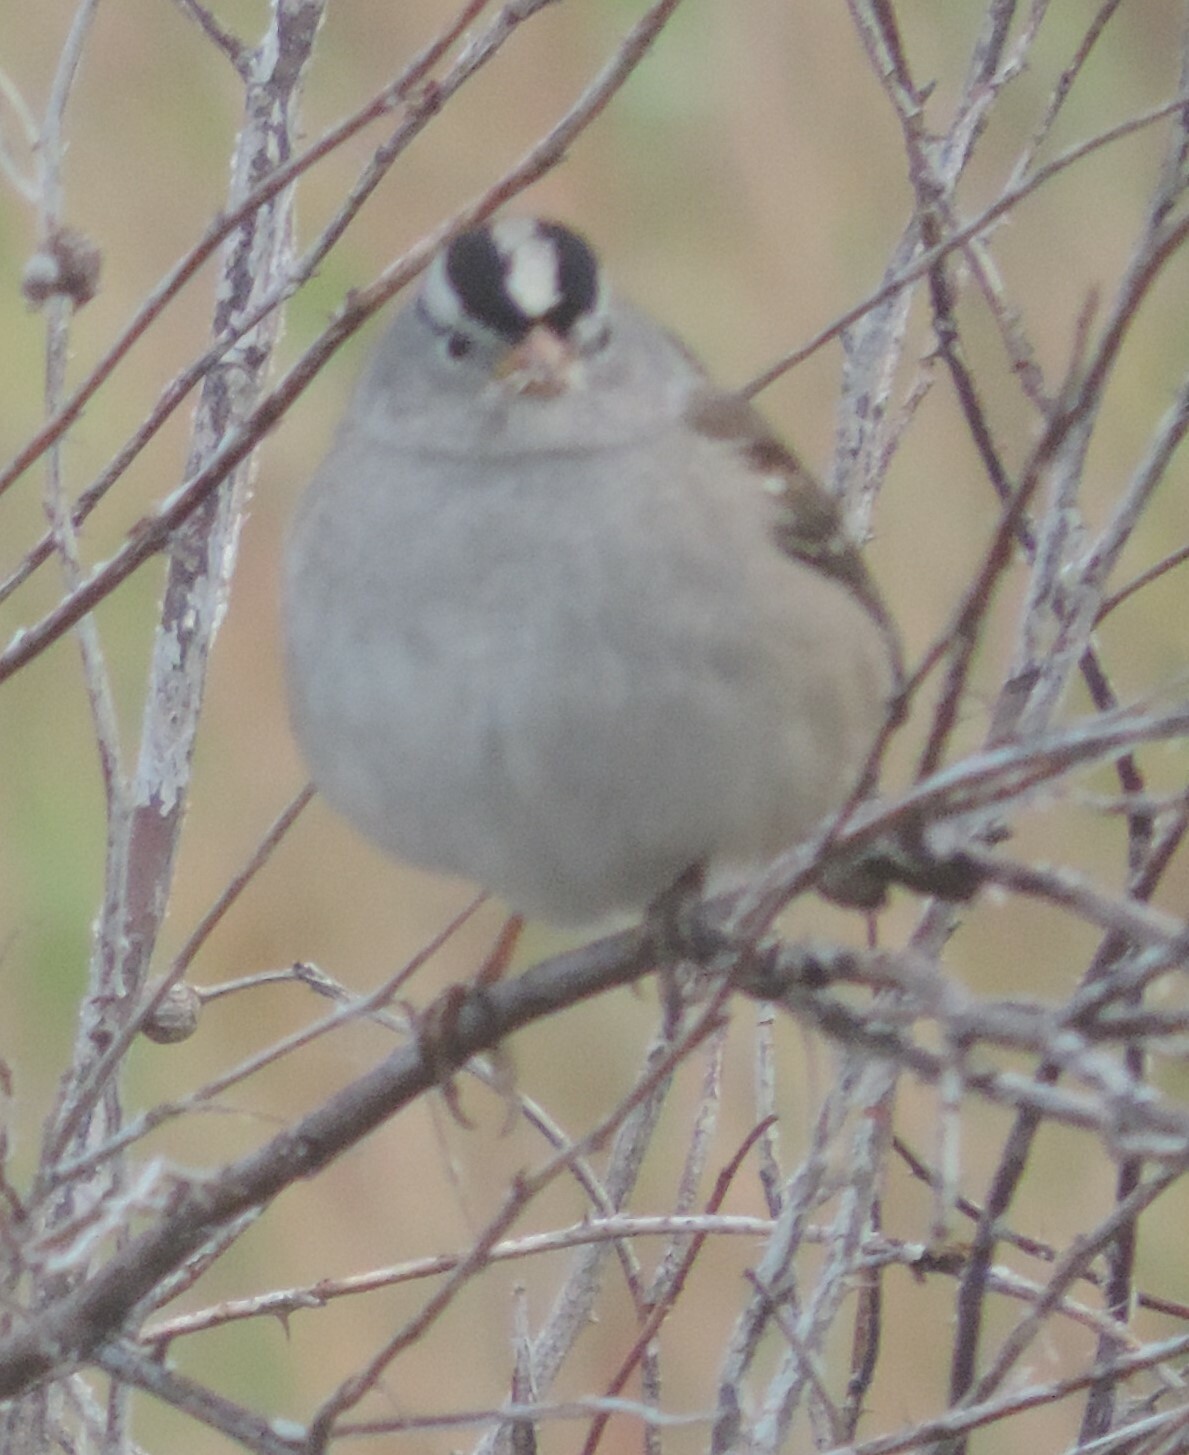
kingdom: Animalia
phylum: Chordata
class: Aves
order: Passeriformes
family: Passerellidae
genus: Zonotrichia
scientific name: Zonotrichia leucophrys
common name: White-crowned sparrow
